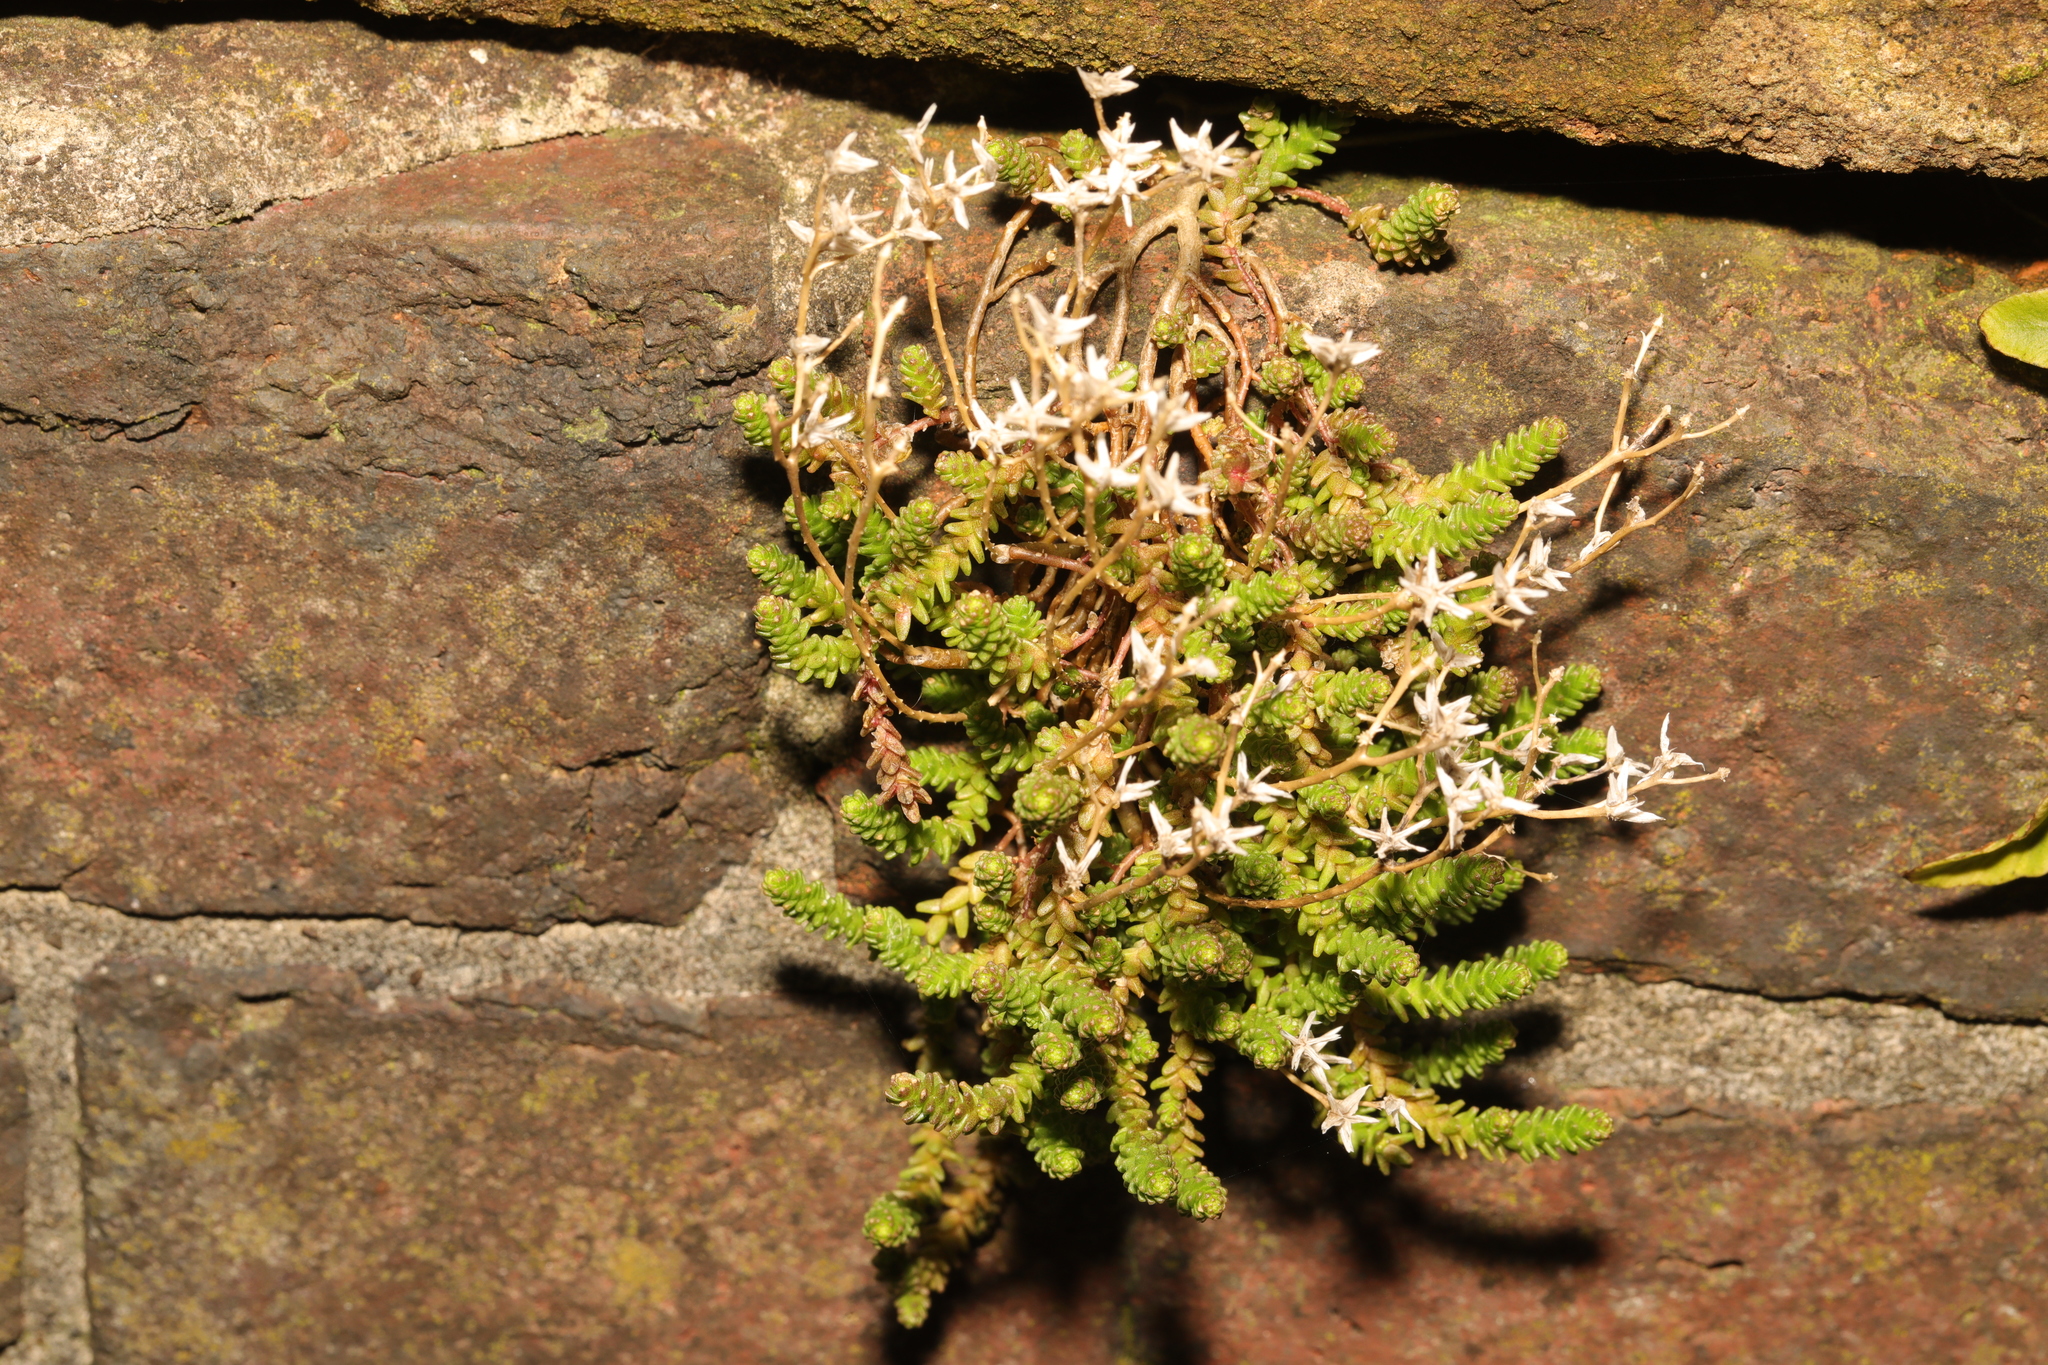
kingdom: Plantae
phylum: Tracheophyta
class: Magnoliopsida
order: Saxifragales
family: Crassulaceae
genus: Sedum
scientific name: Sedum acre
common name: Biting stonecrop
